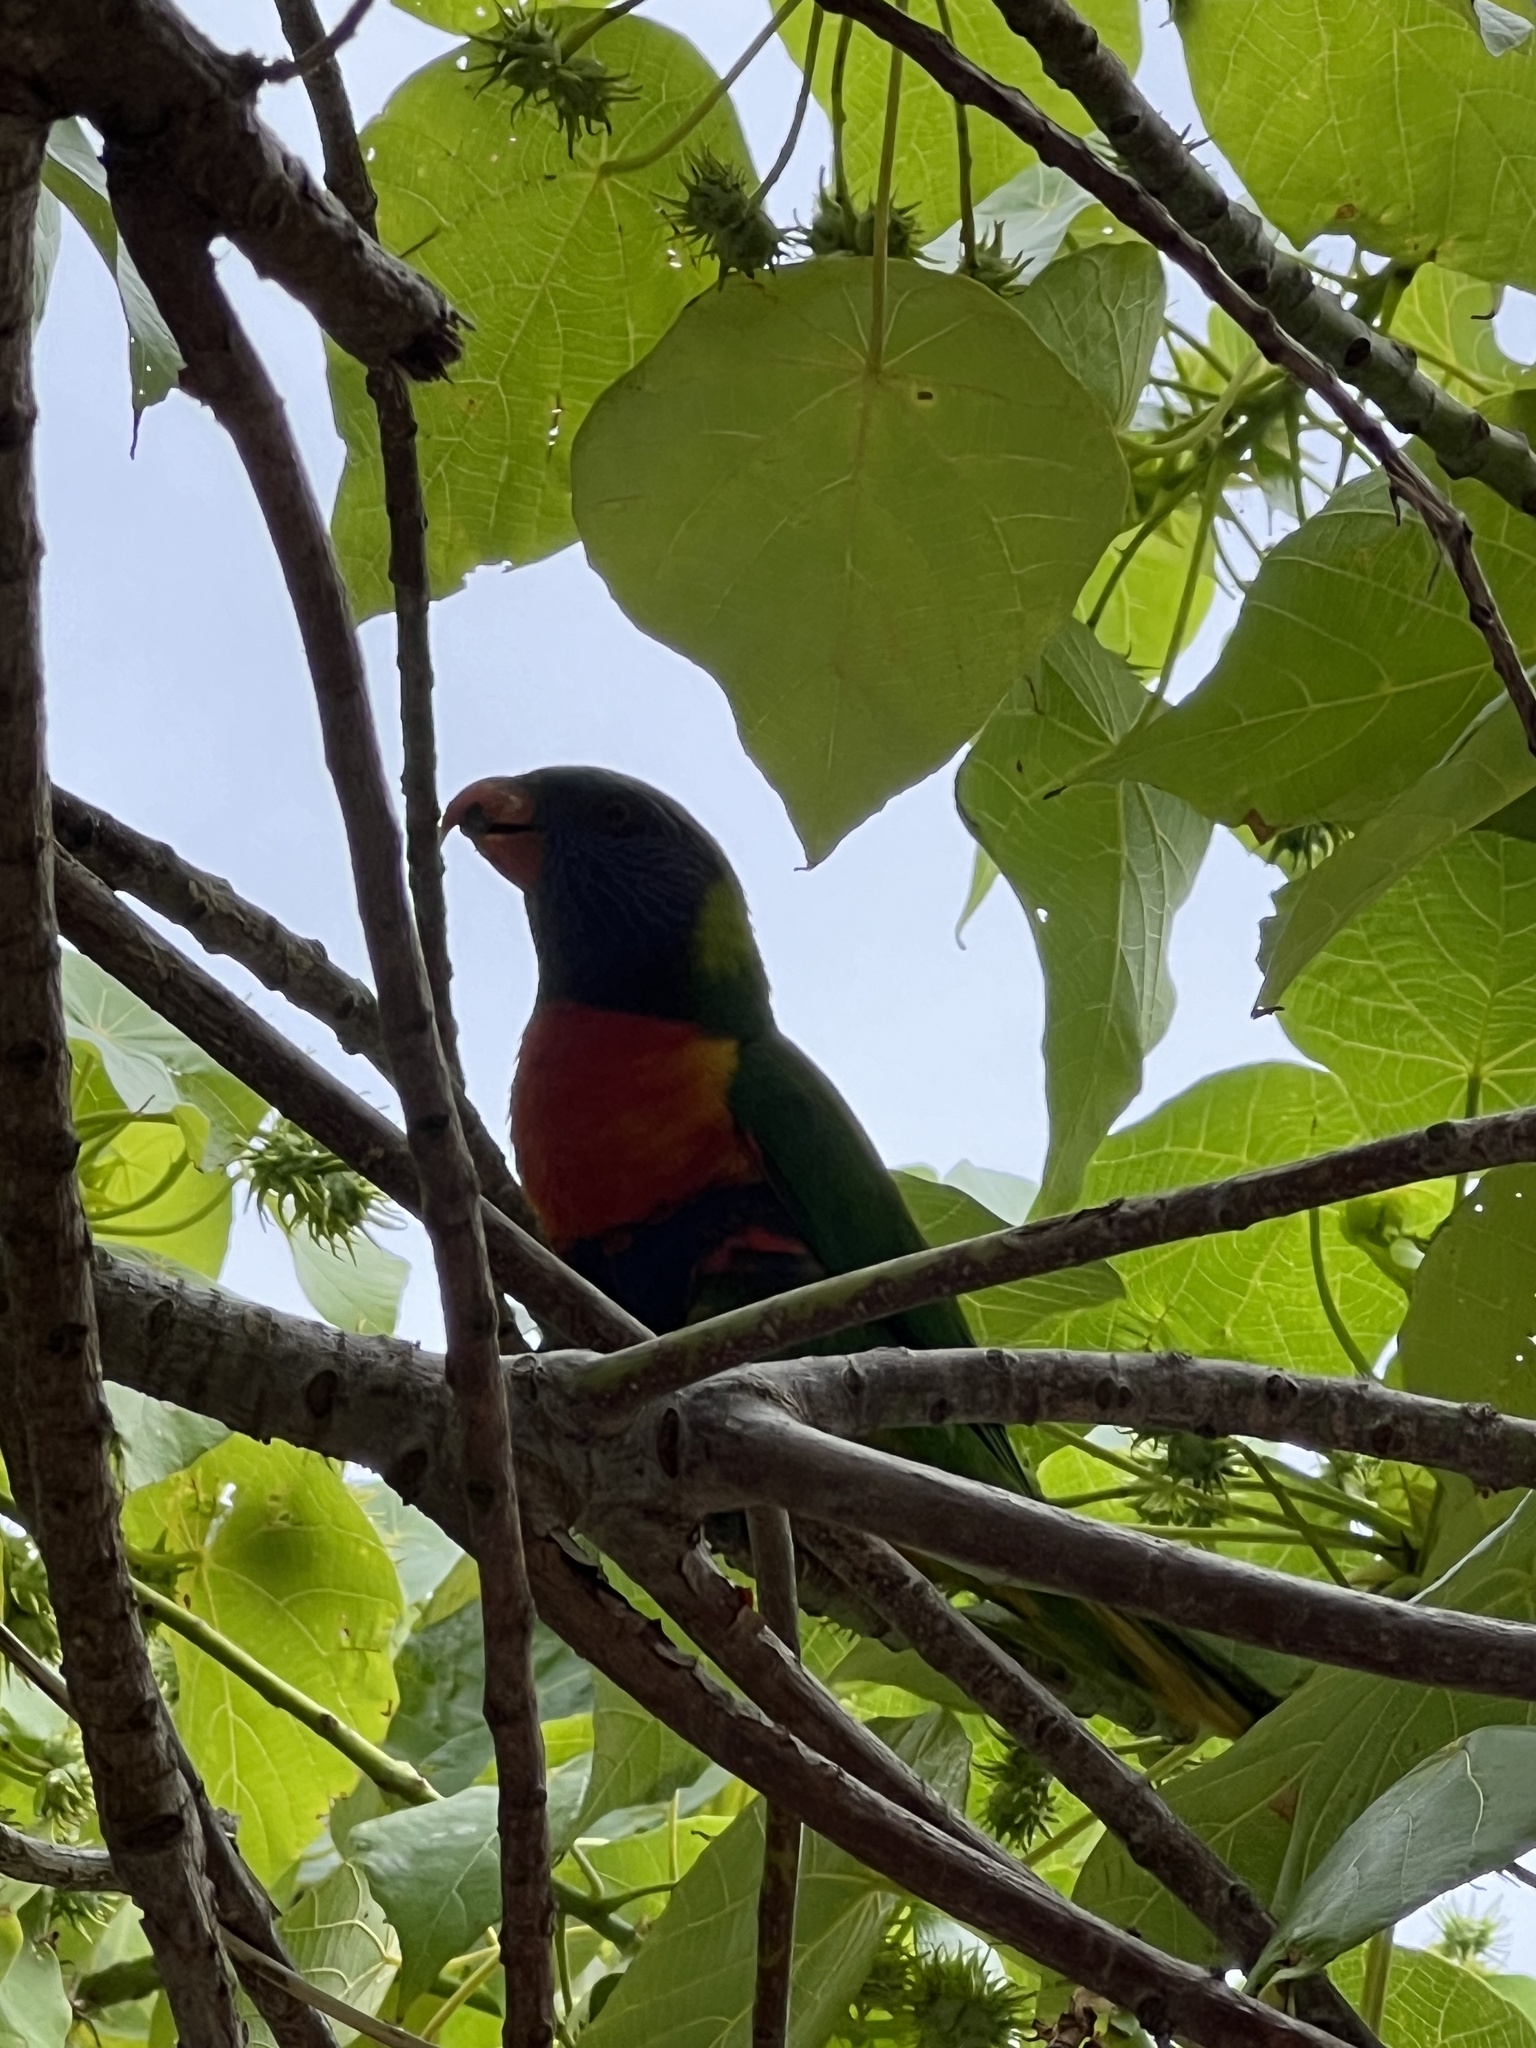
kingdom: Animalia
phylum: Chordata
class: Aves
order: Psittaciformes
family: Psittacidae
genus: Trichoglossus
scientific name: Trichoglossus haematodus
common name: Coconut lorikeet
